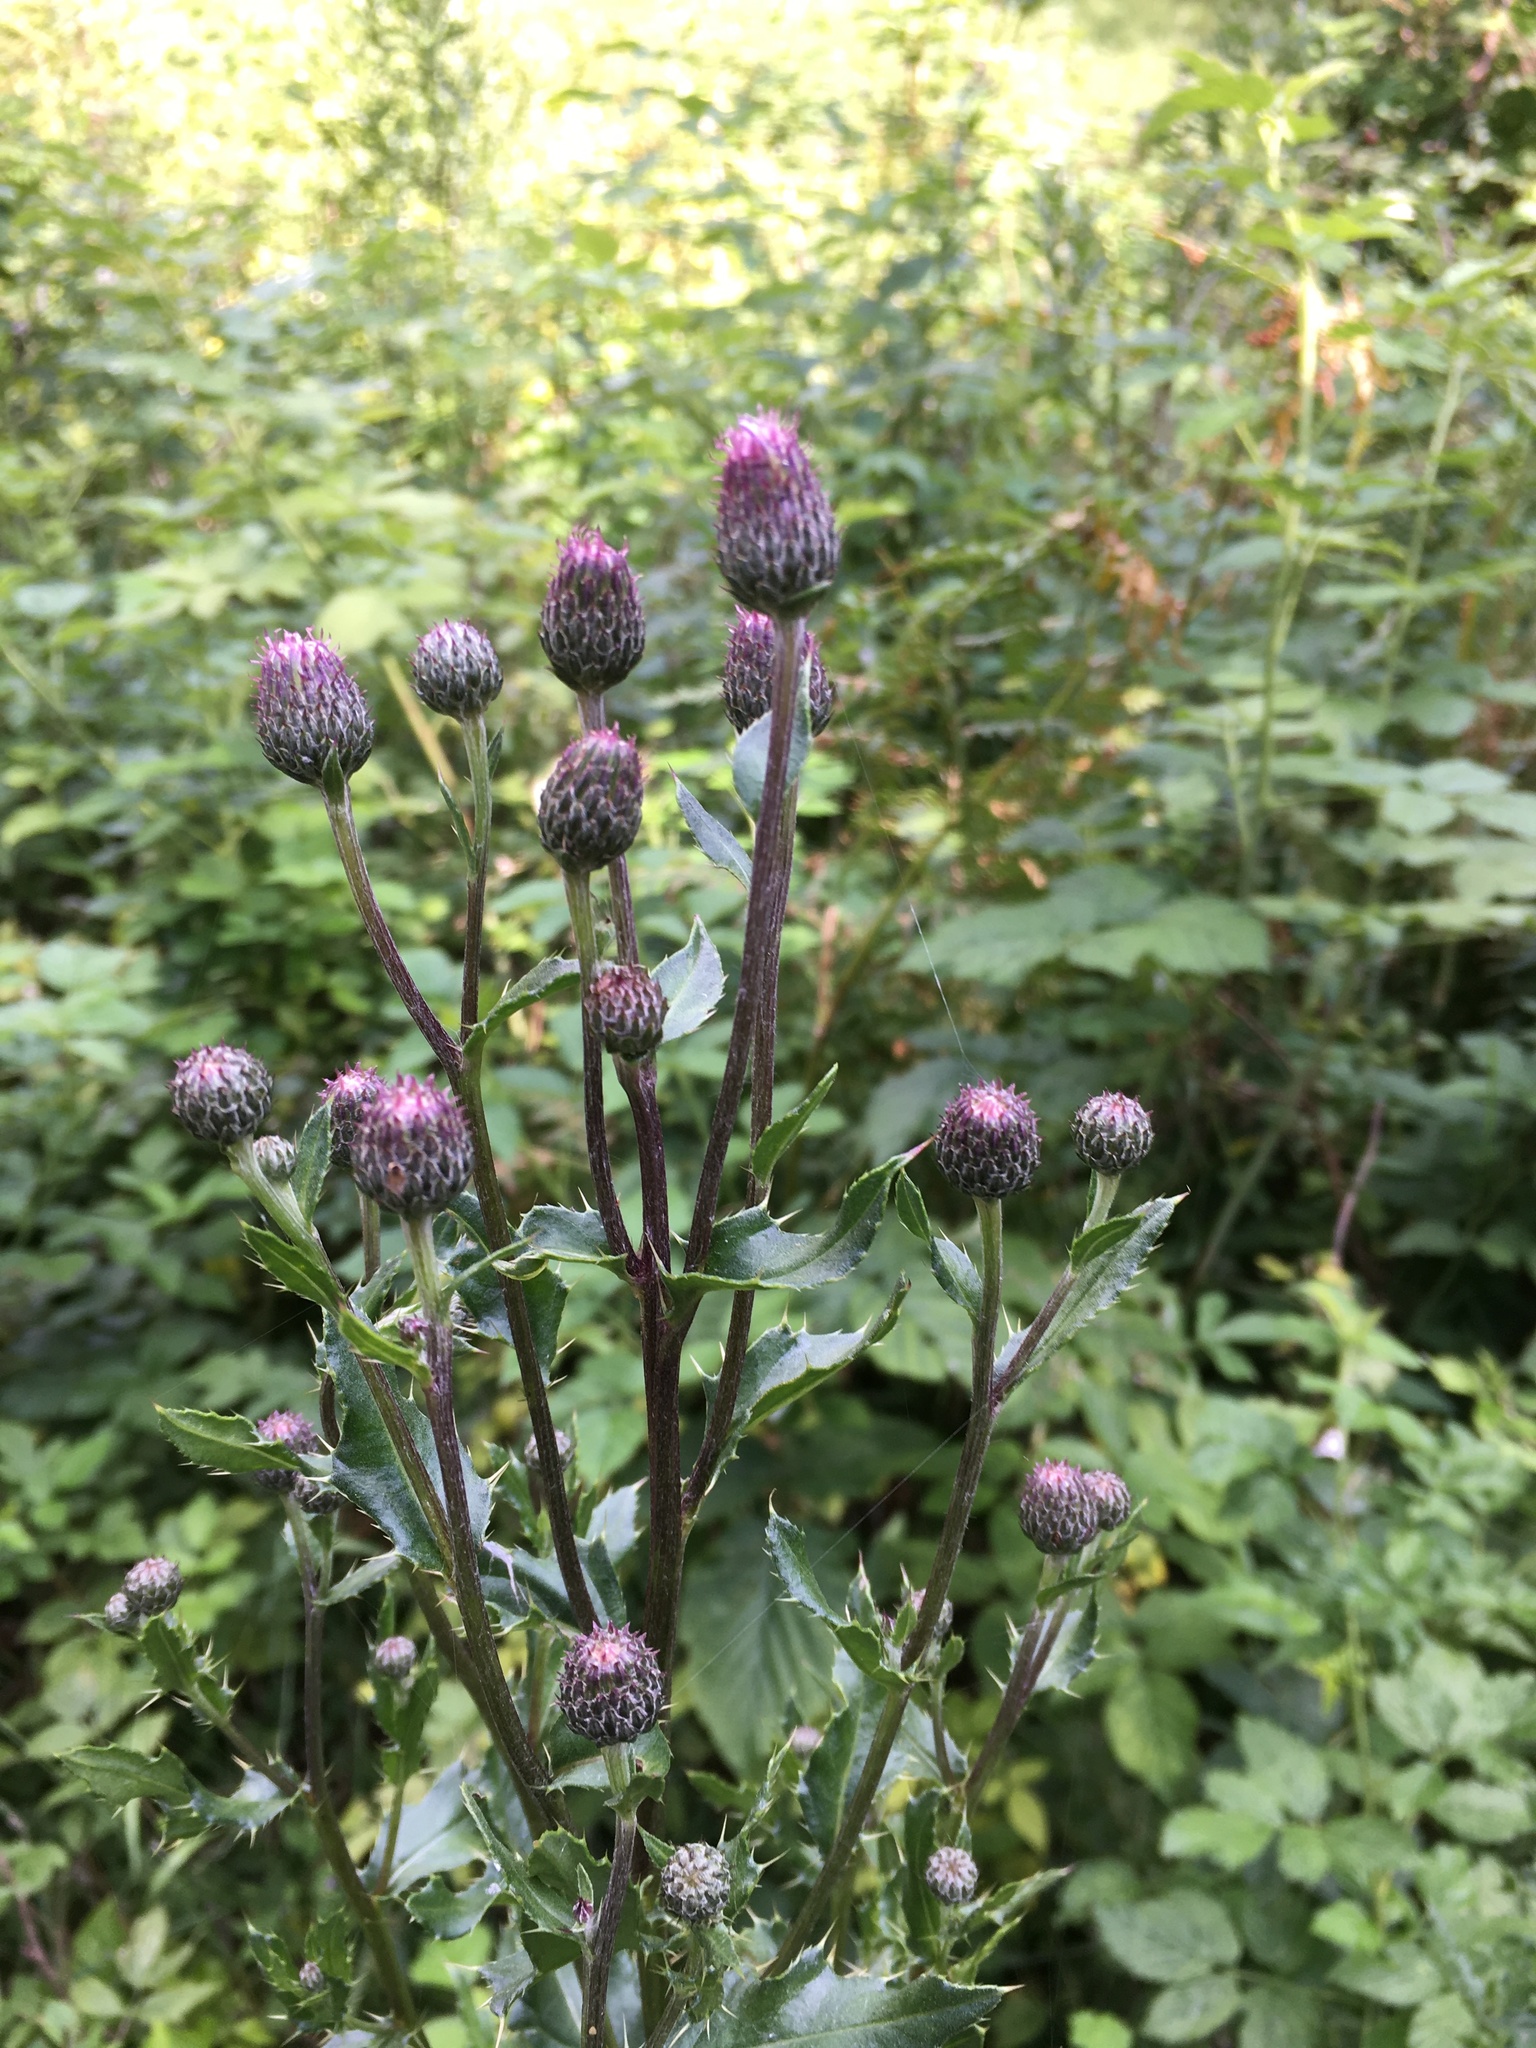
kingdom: Plantae
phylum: Tracheophyta
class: Magnoliopsida
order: Asterales
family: Asteraceae
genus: Cirsium
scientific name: Cirsium arvense
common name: Creeping thistle
